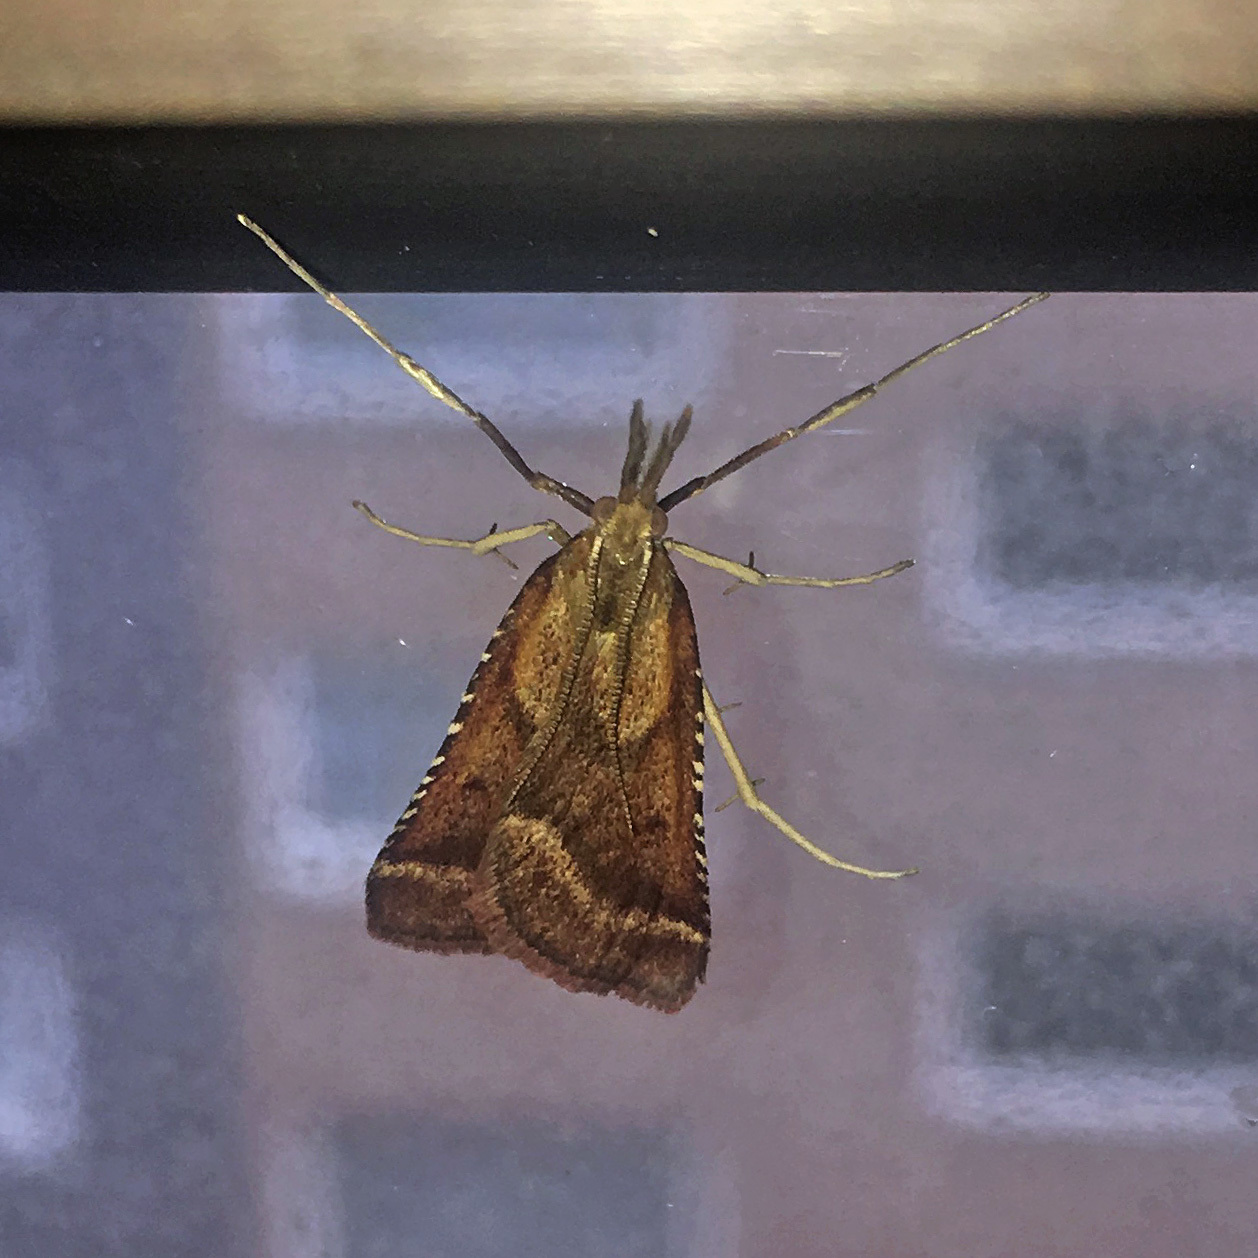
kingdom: Animalia
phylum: Arthropoda
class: Insecta
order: Lepidoptera
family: Pyralidae
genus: Synaphe
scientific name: Synaphe punctalis
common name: Long-legged tabby
